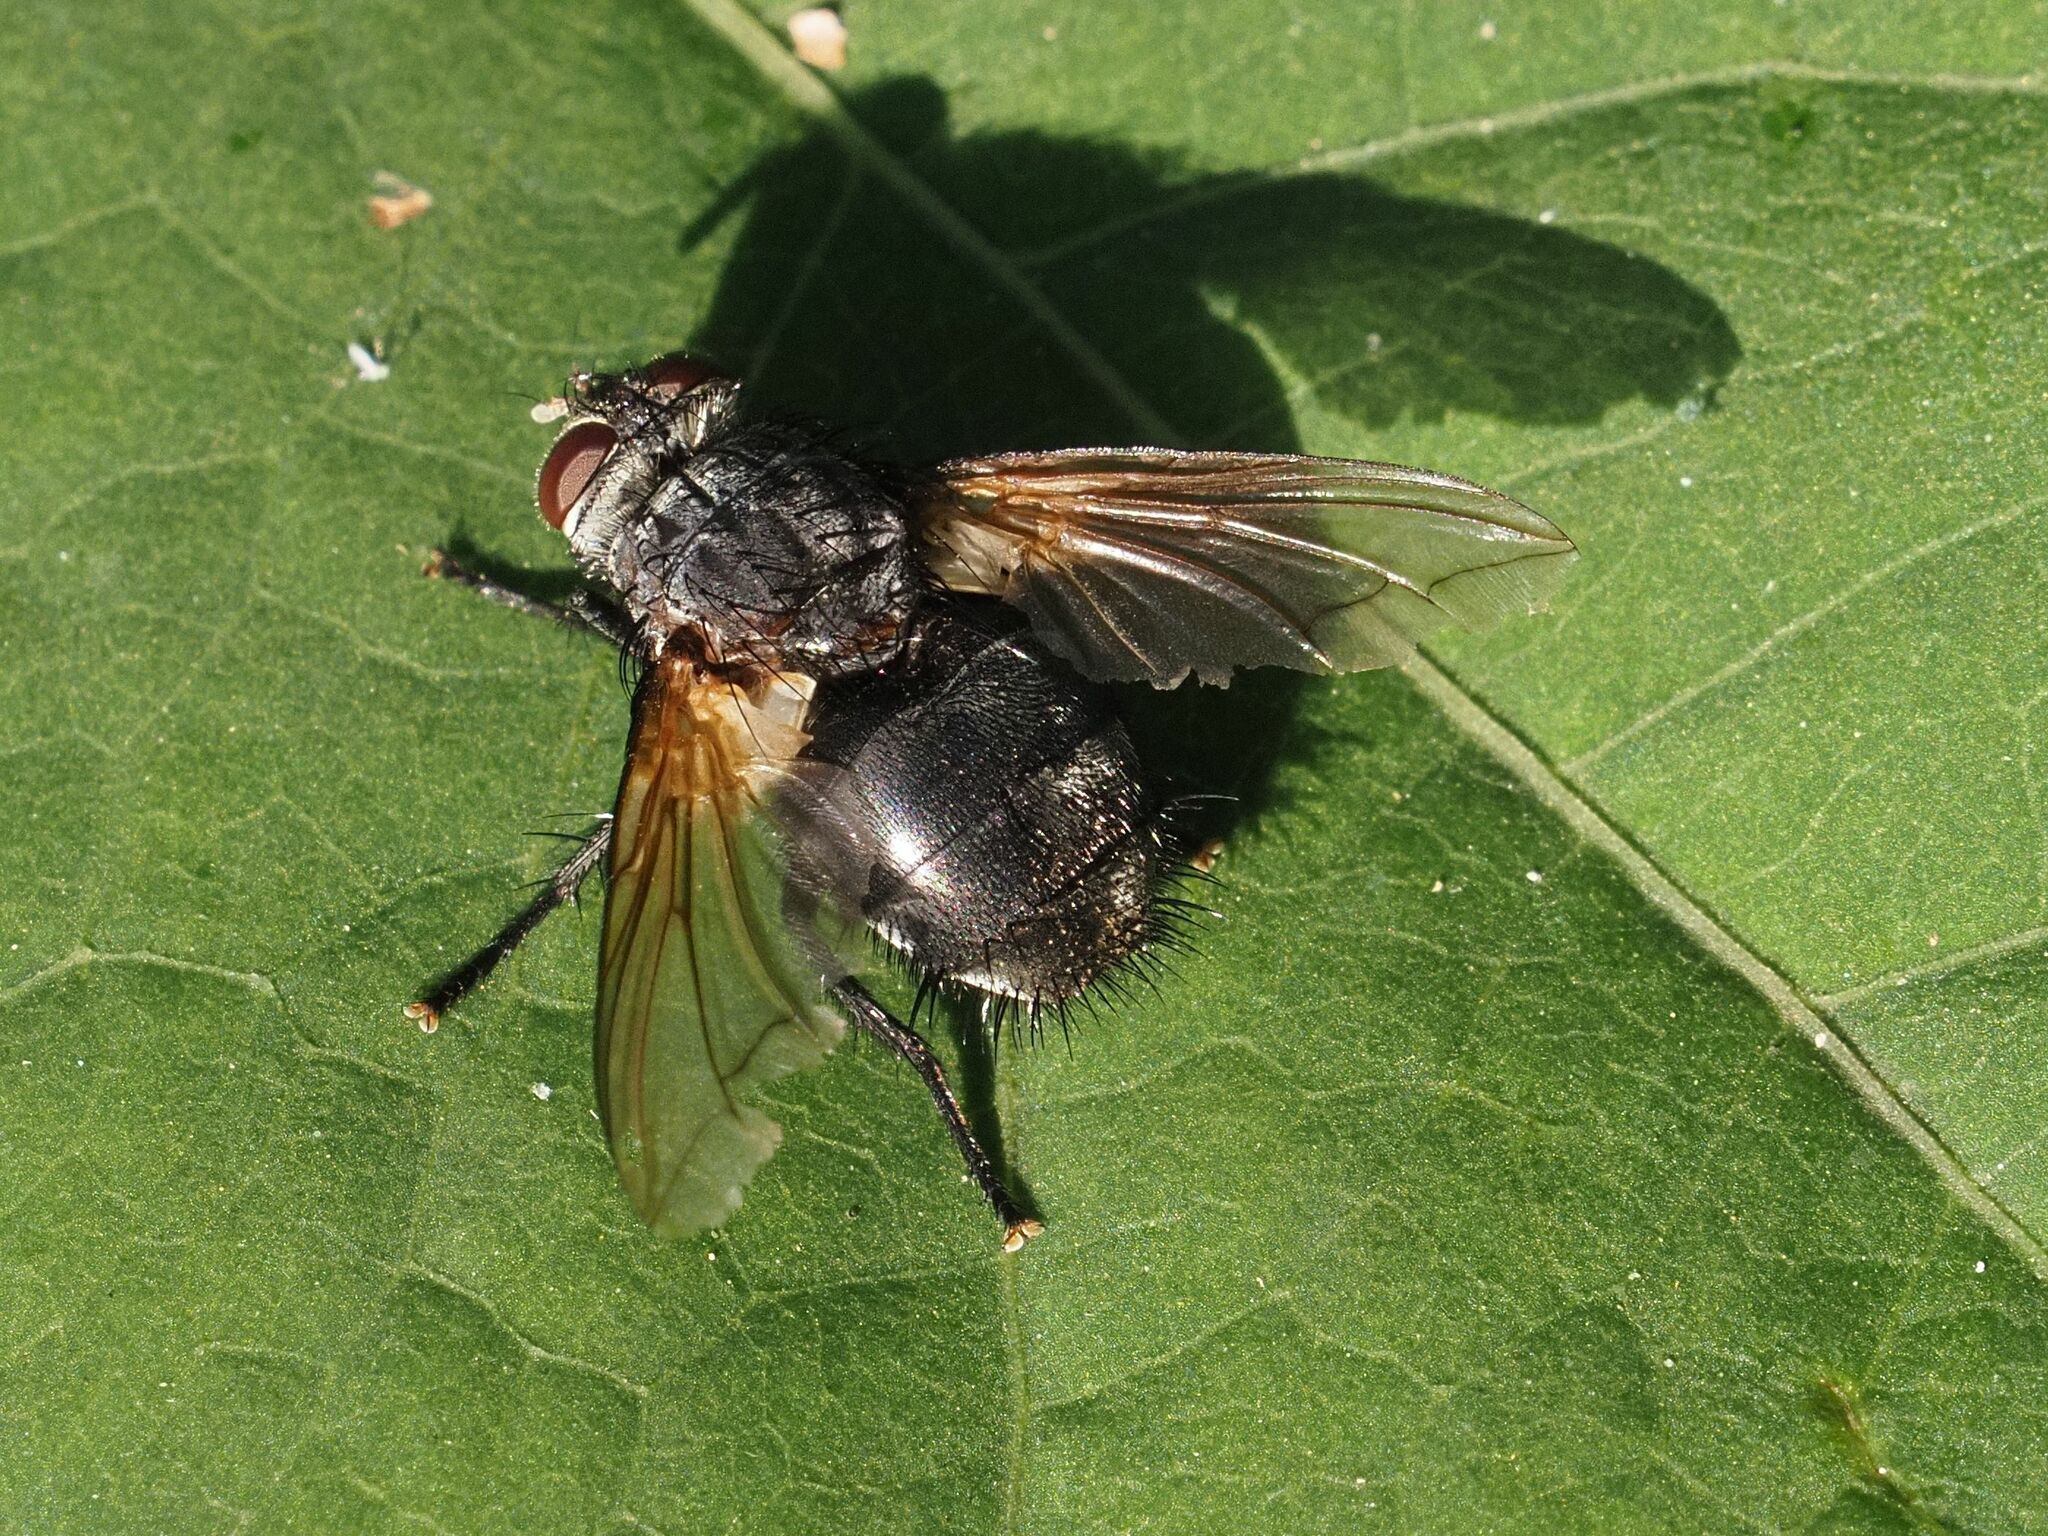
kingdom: Animalia
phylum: Arthropoda
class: Insecta
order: Diptera
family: Tachinidae
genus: Nemoraea
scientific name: Nemoraea pellucida
